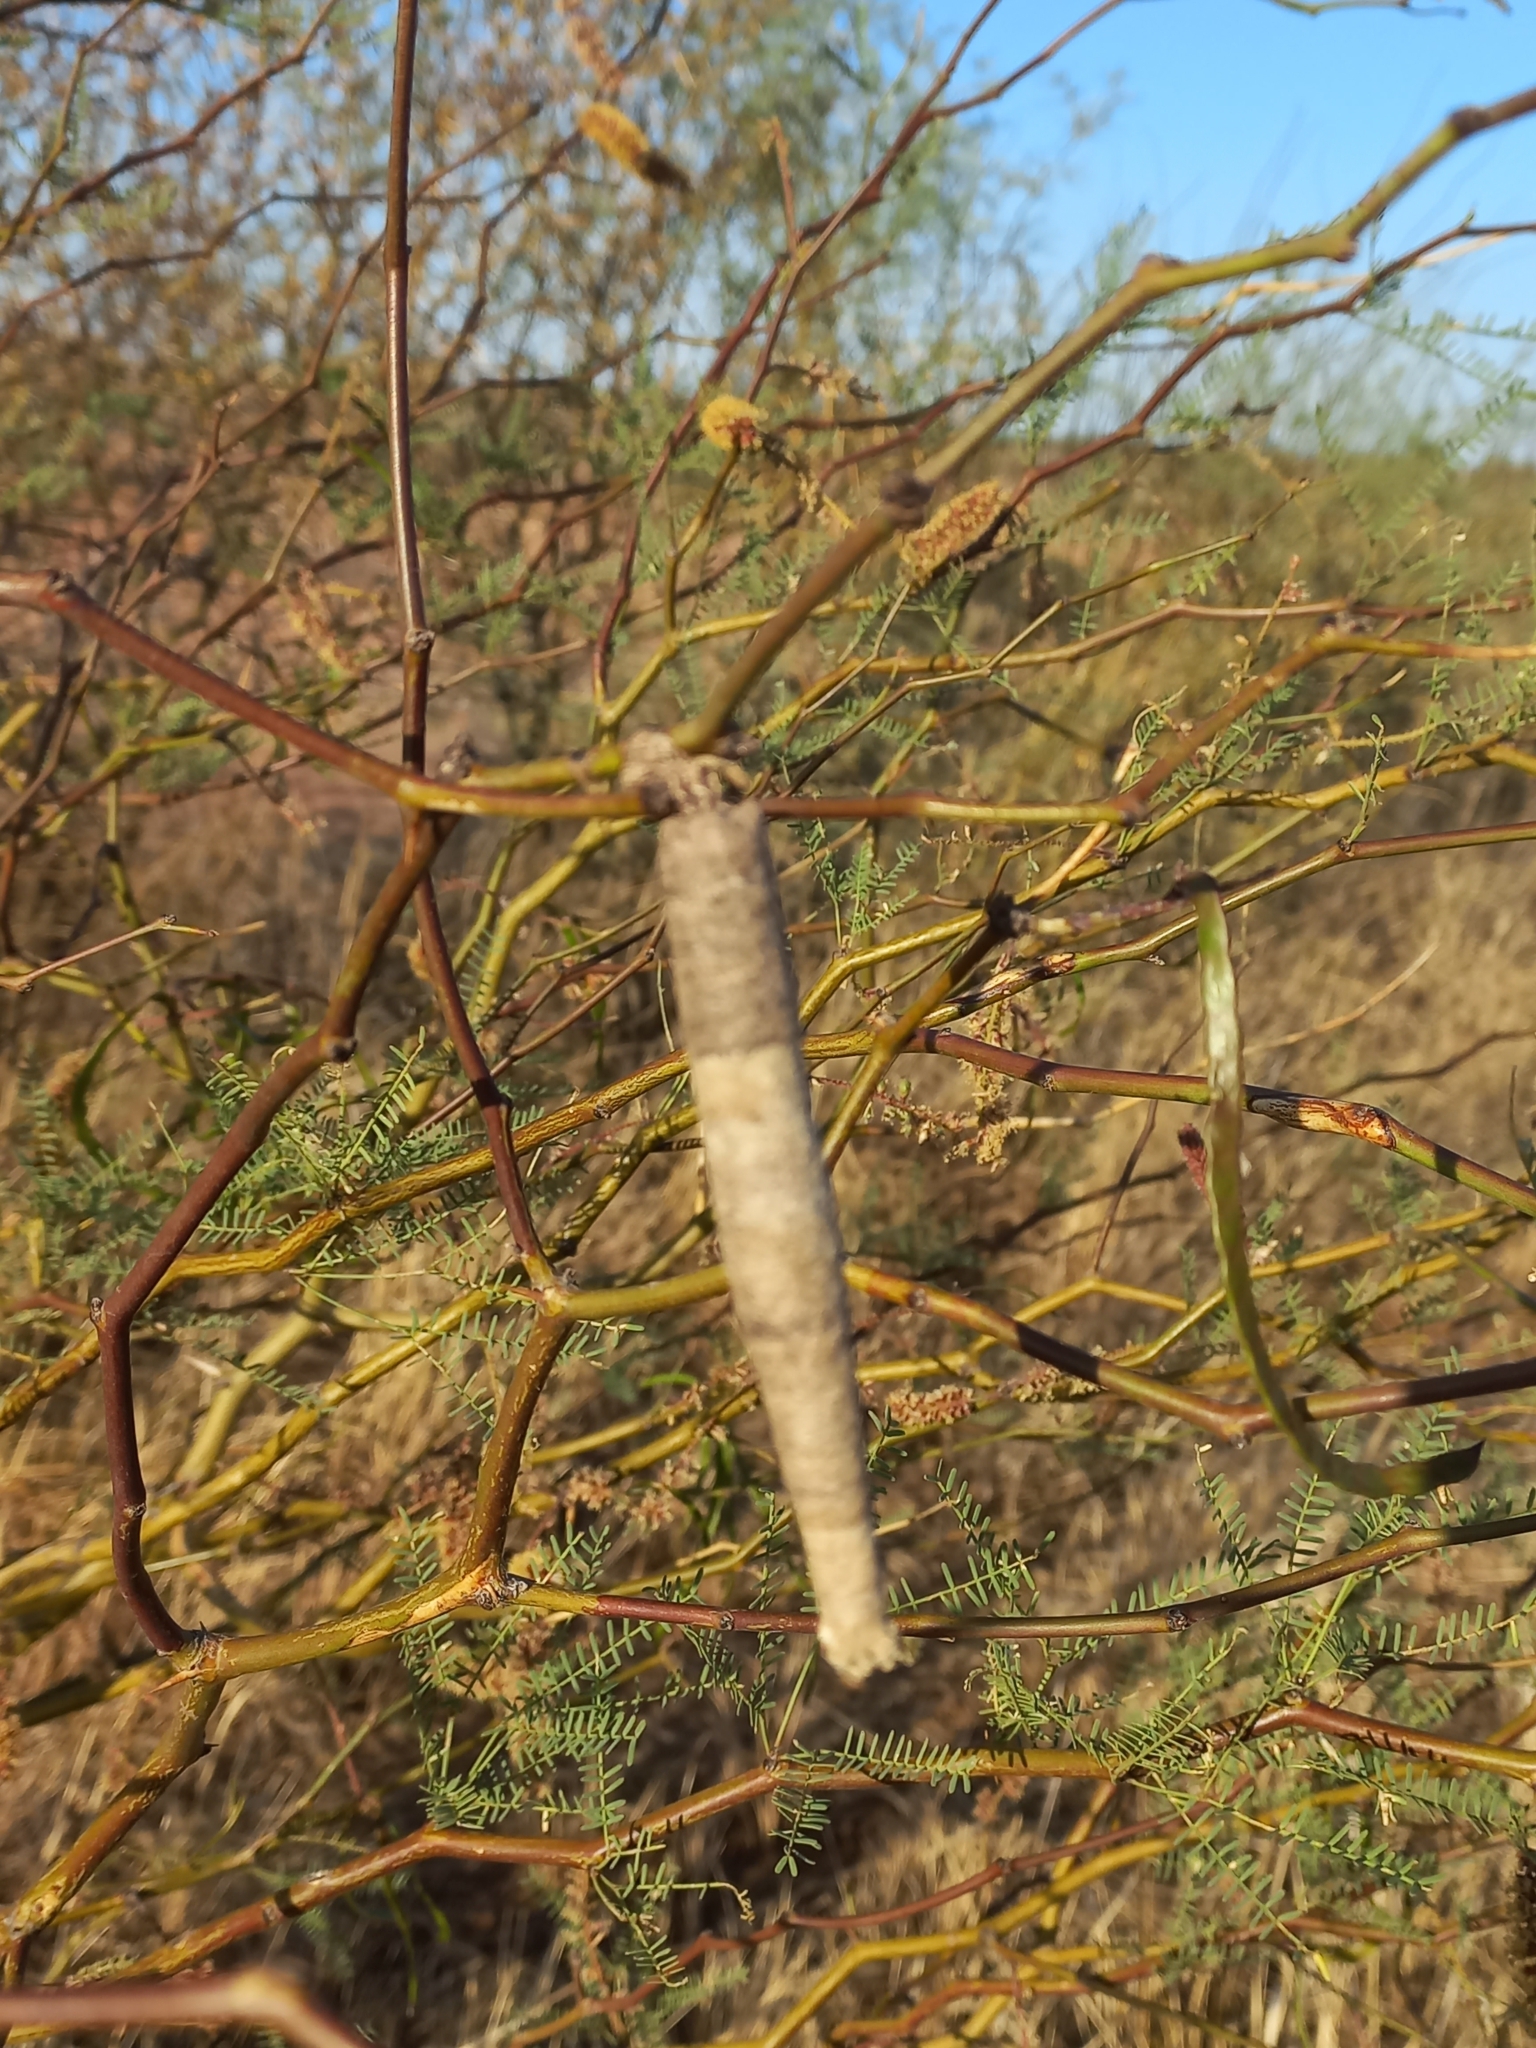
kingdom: Animalia
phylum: Arthropoda
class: Insecta
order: Lepidoptera
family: Psychidae
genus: Oiketicus
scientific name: Oiketicus geyeri
